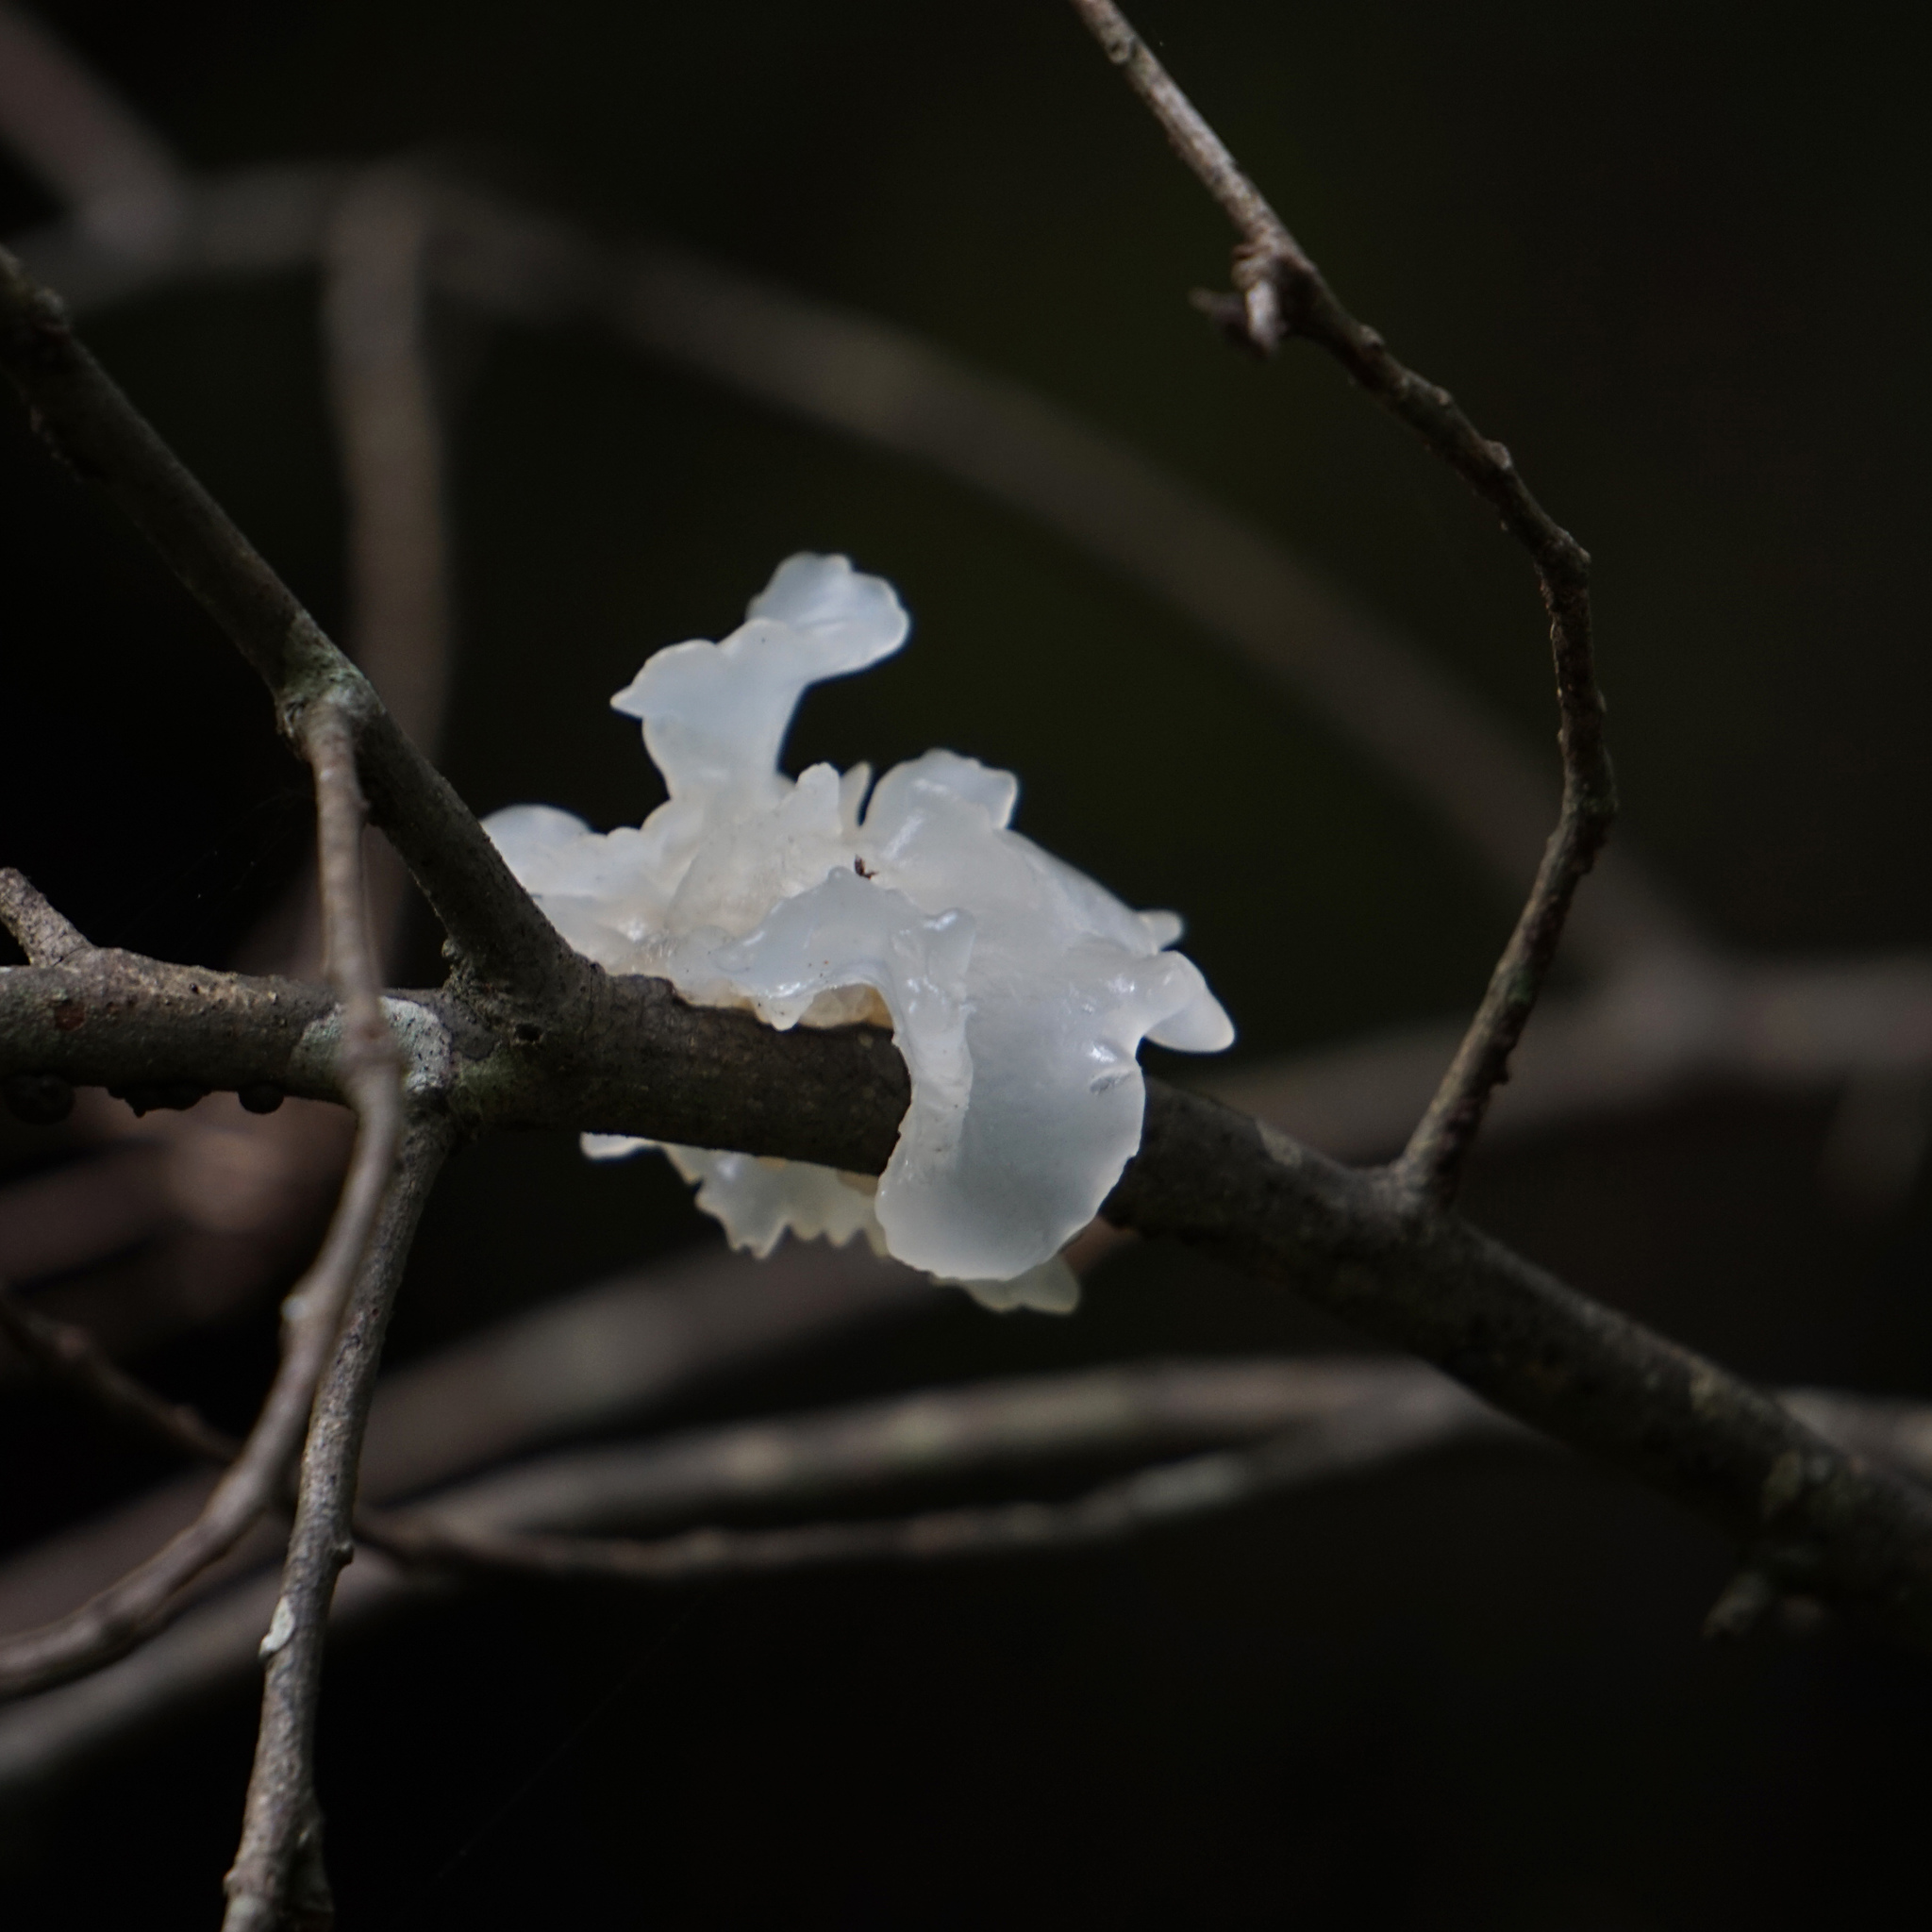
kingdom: Fungi
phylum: Basidiomycota
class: Tremellomycetes
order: Tremellales
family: Tremellaceae
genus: Tremella
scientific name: Tremella fuciformis
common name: Snow fungus
